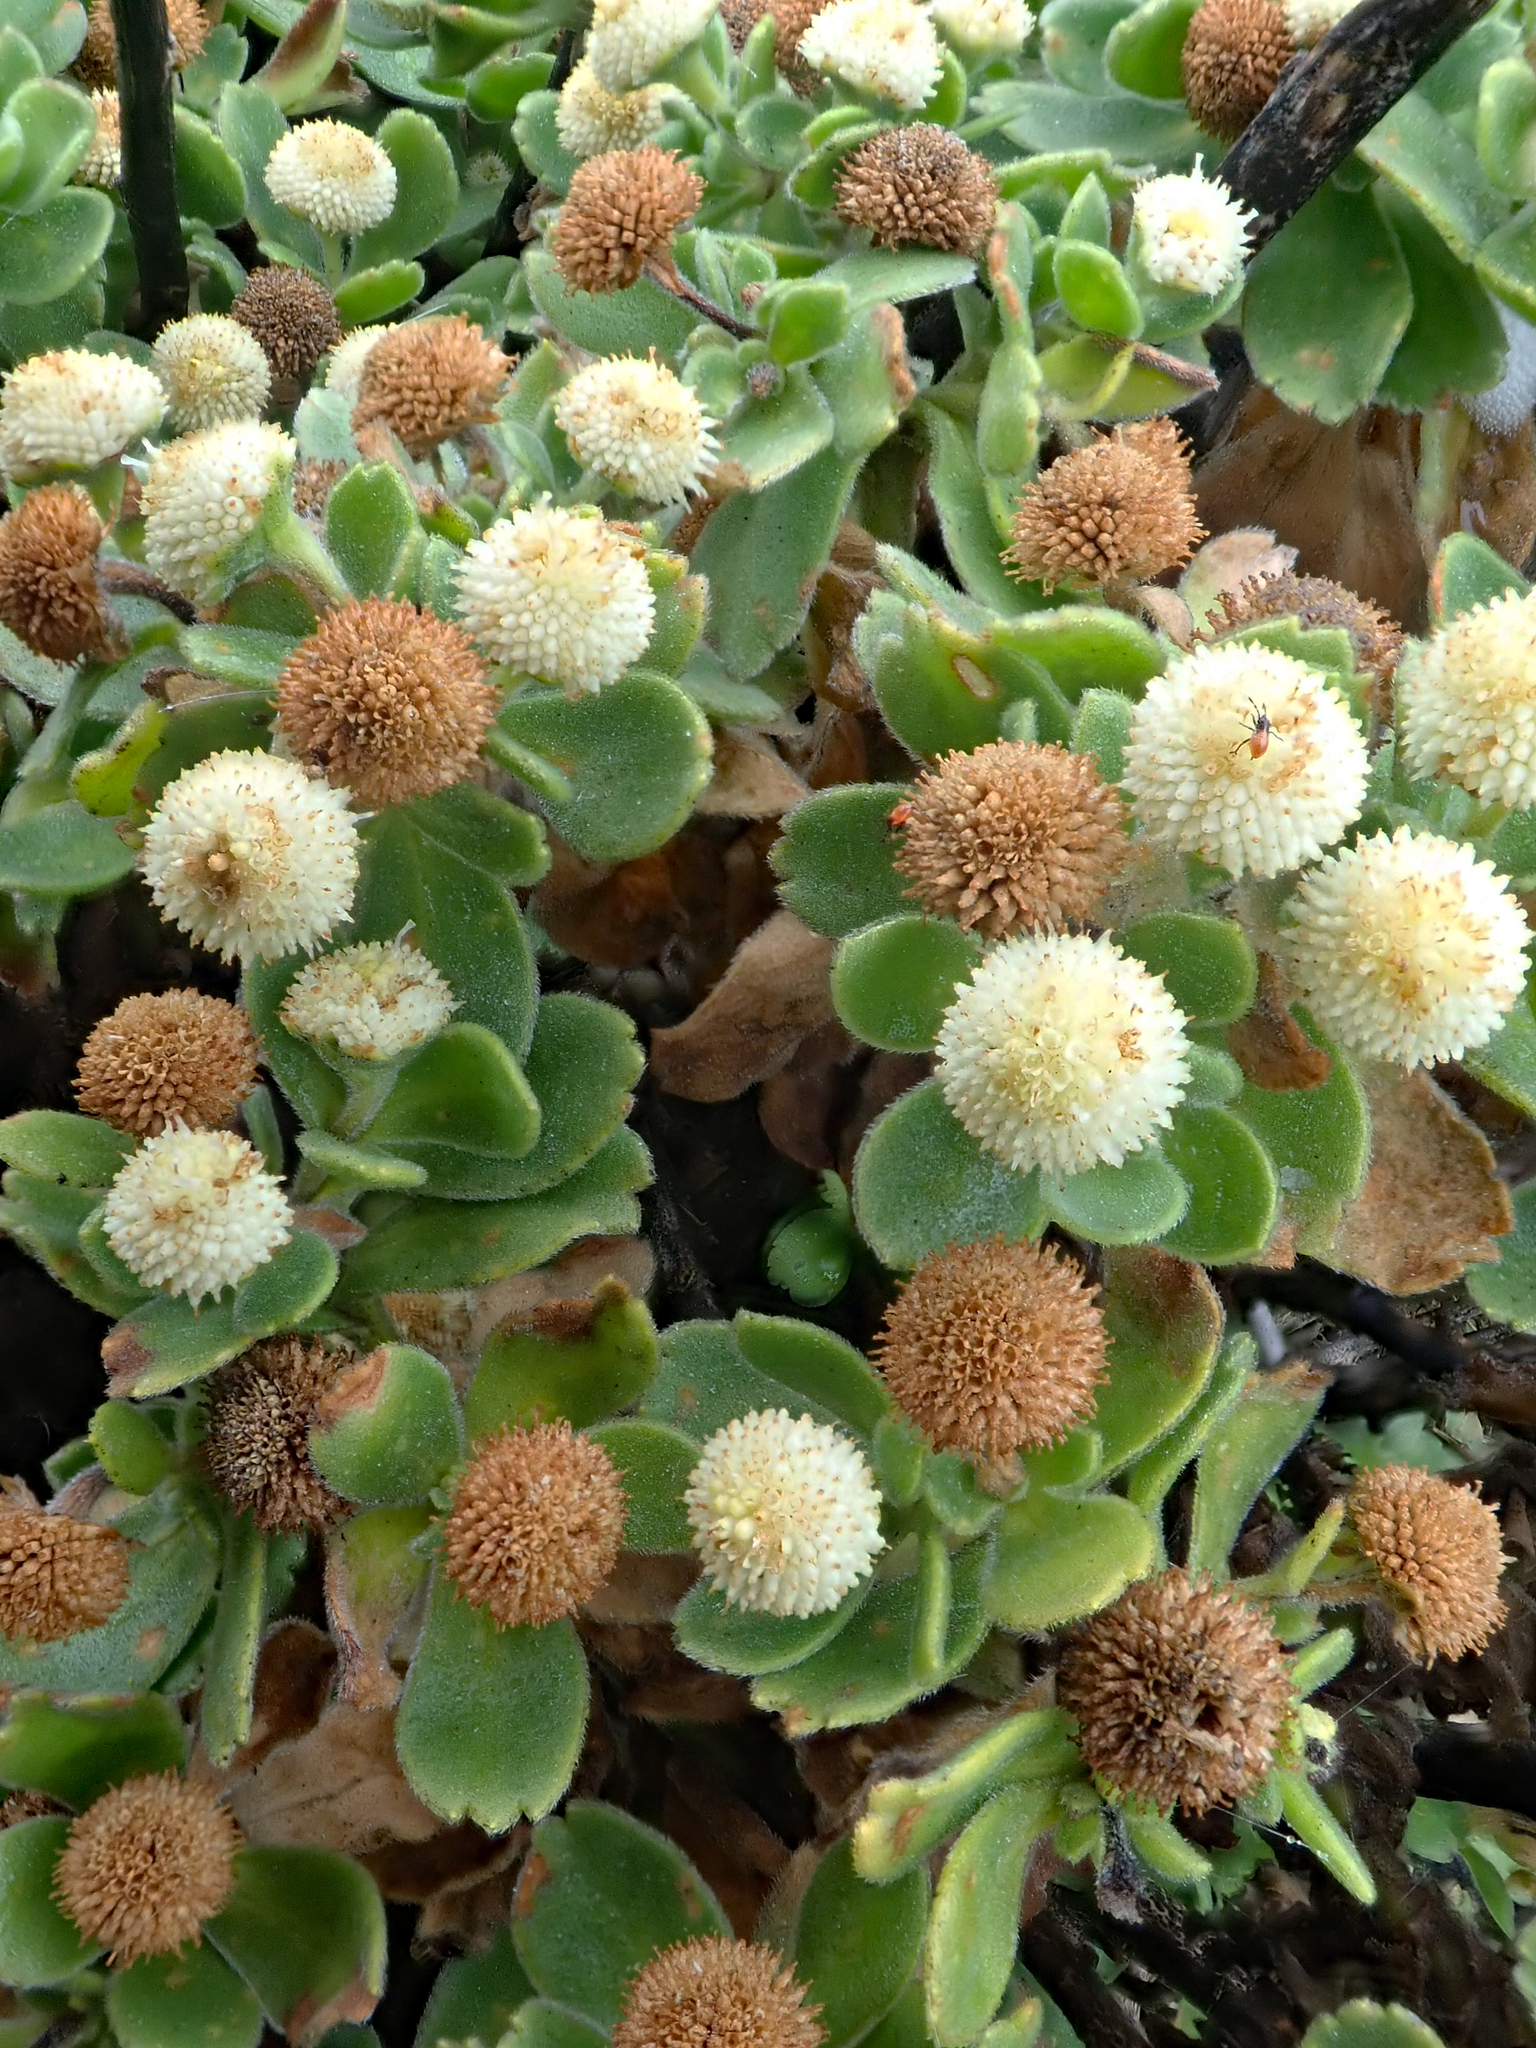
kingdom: Plantae
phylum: Tracheophyta
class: Magnoliopsida
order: Asterales
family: Asteraceae
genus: Leptinella
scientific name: Leptinella featherstonii
